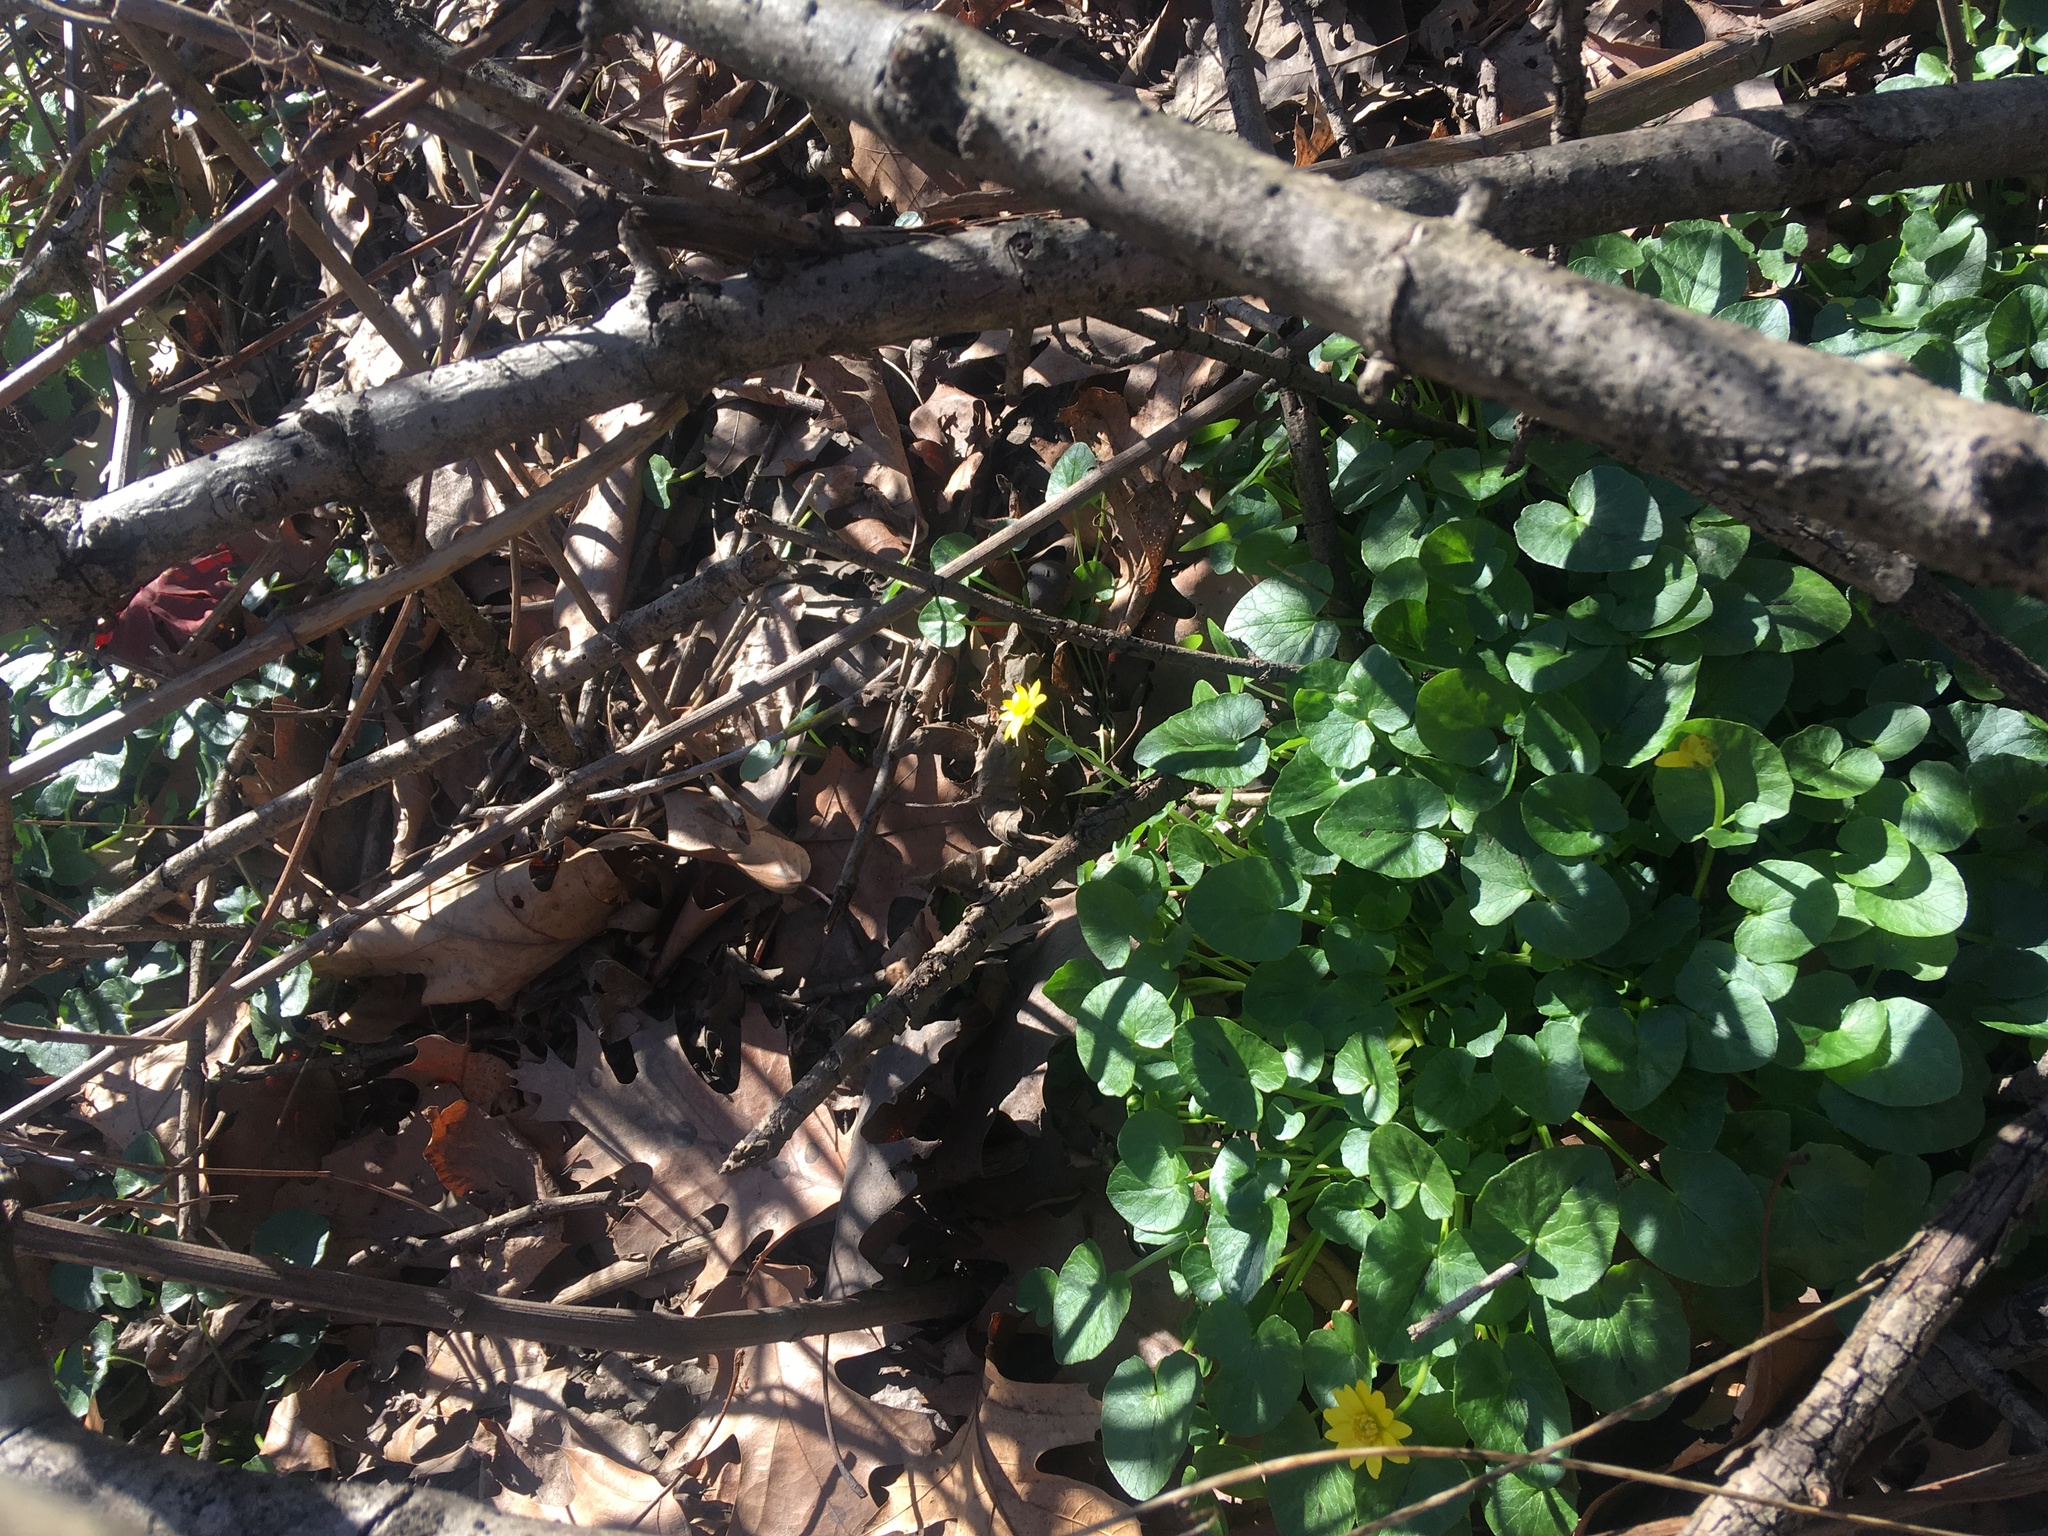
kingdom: Plantae
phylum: Tracheophyta
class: Magnoliopsida
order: Ranunculales
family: Ranunculaceae
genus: Ficaria
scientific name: Ficaria verna
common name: Lesser celandine
